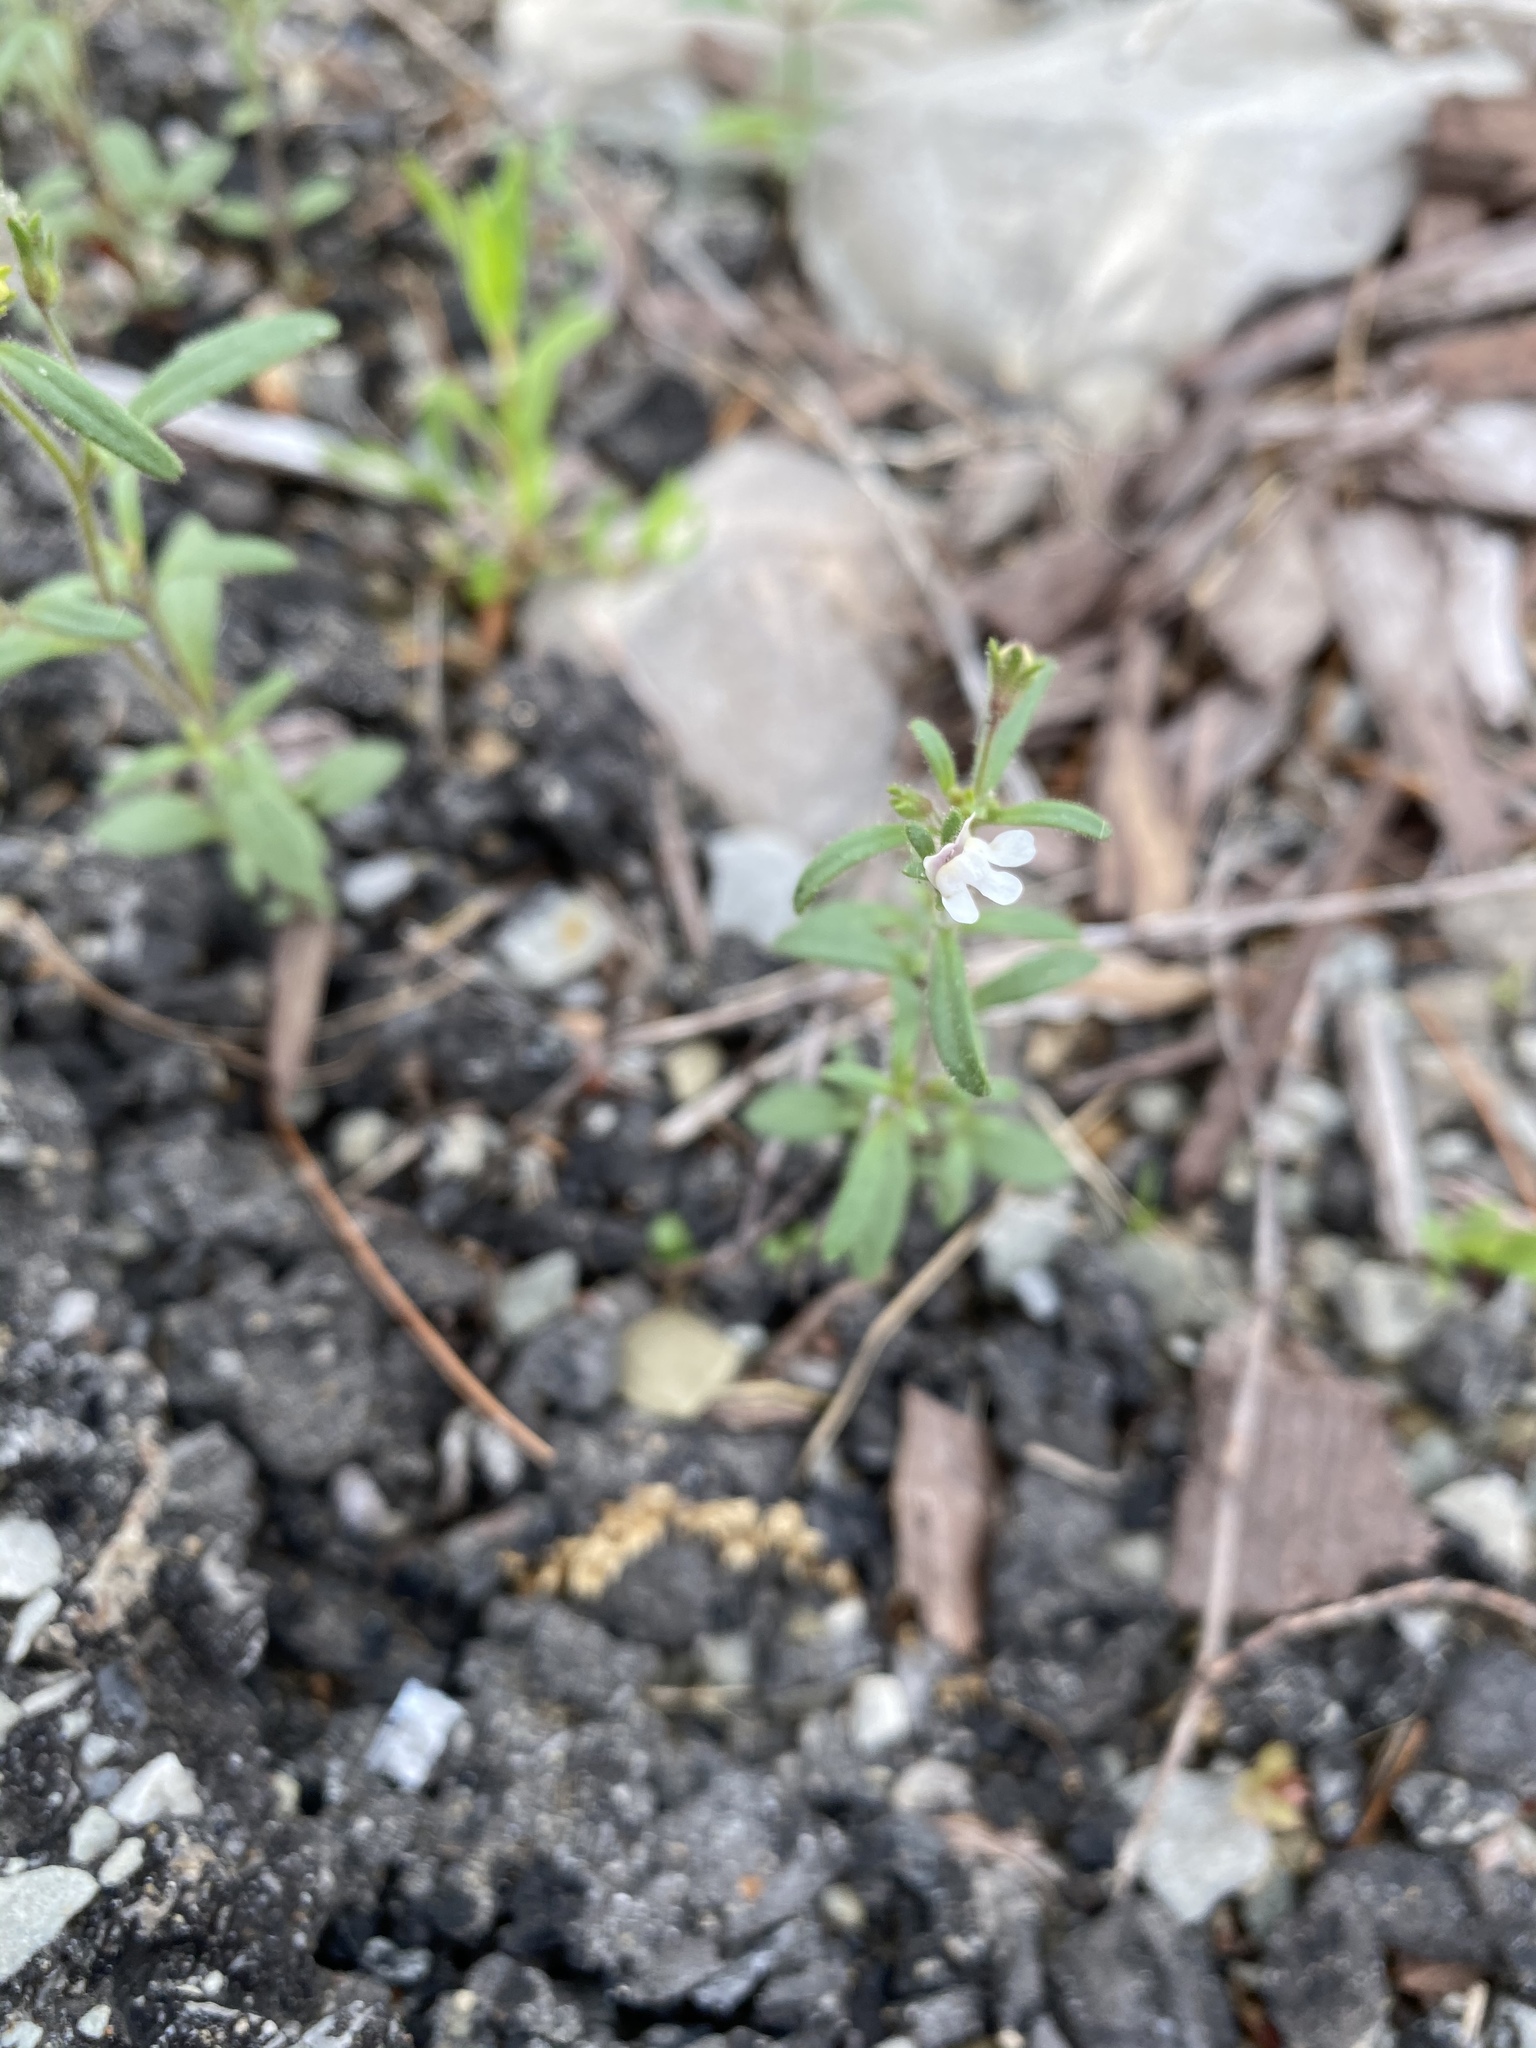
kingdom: Plantae
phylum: Tracheophyta
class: Magnoliopsida
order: Lamiales
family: Plantaginaceae
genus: Chaenorhinum
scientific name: Chaenorhinum minus
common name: Dwarf snapdragon
